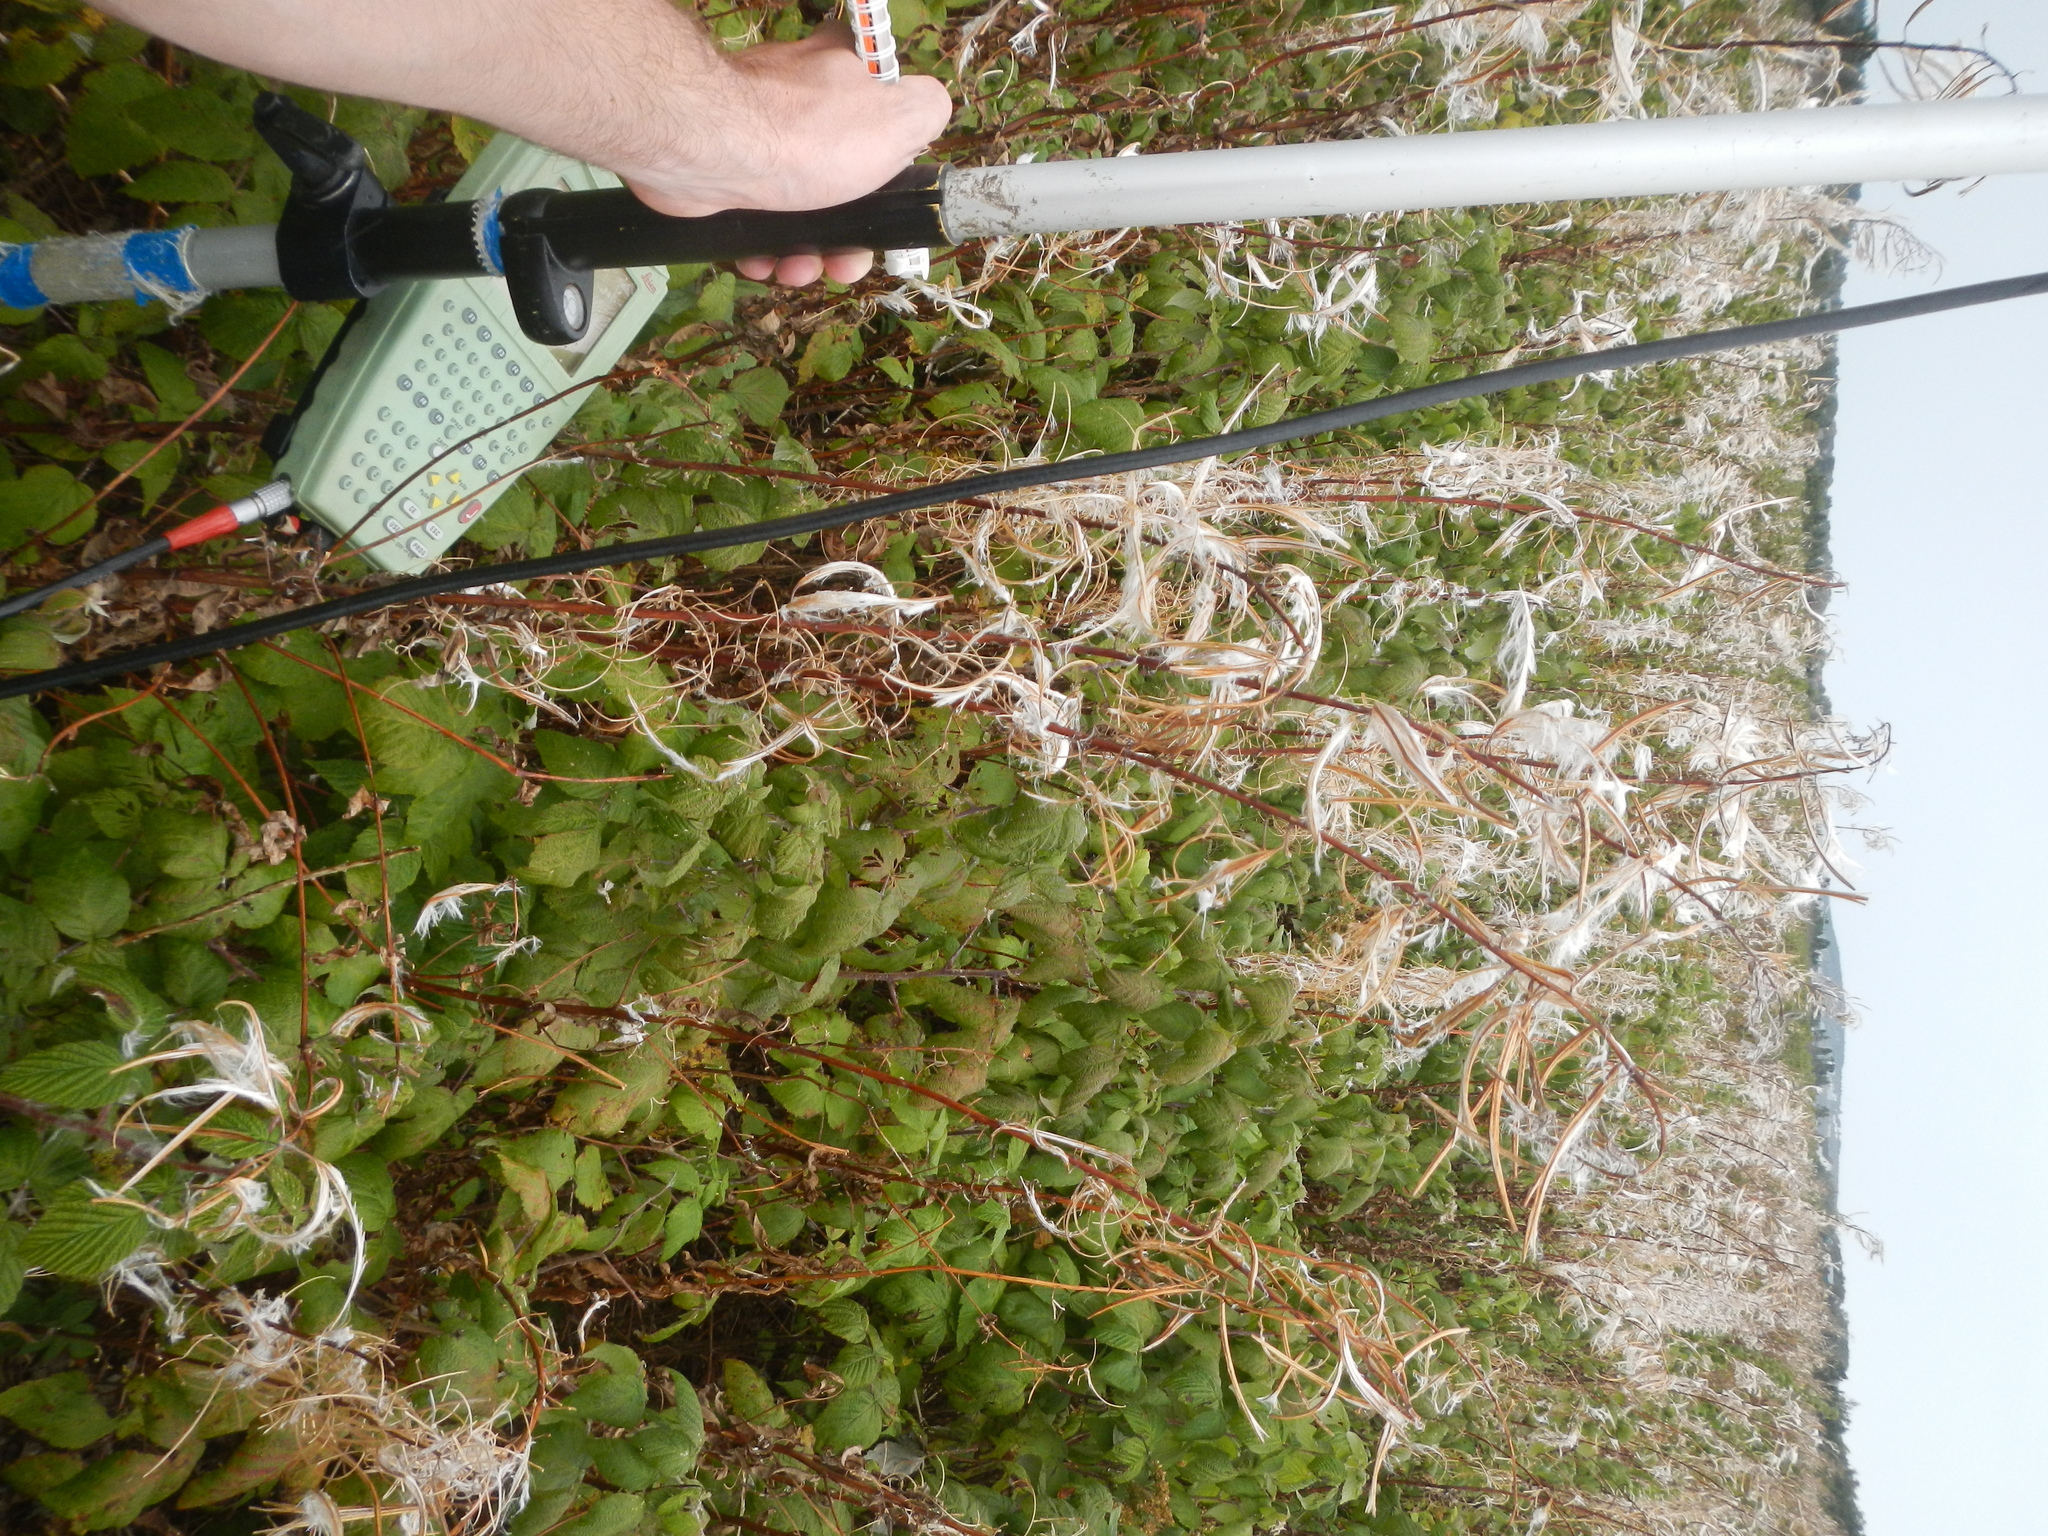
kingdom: Plantae
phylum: Tracheophyta
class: Magnoliopsida
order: Myrtales
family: Onagraceae
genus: Chamaenerion
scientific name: Chamaenerion angustifolium
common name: Fireweed
